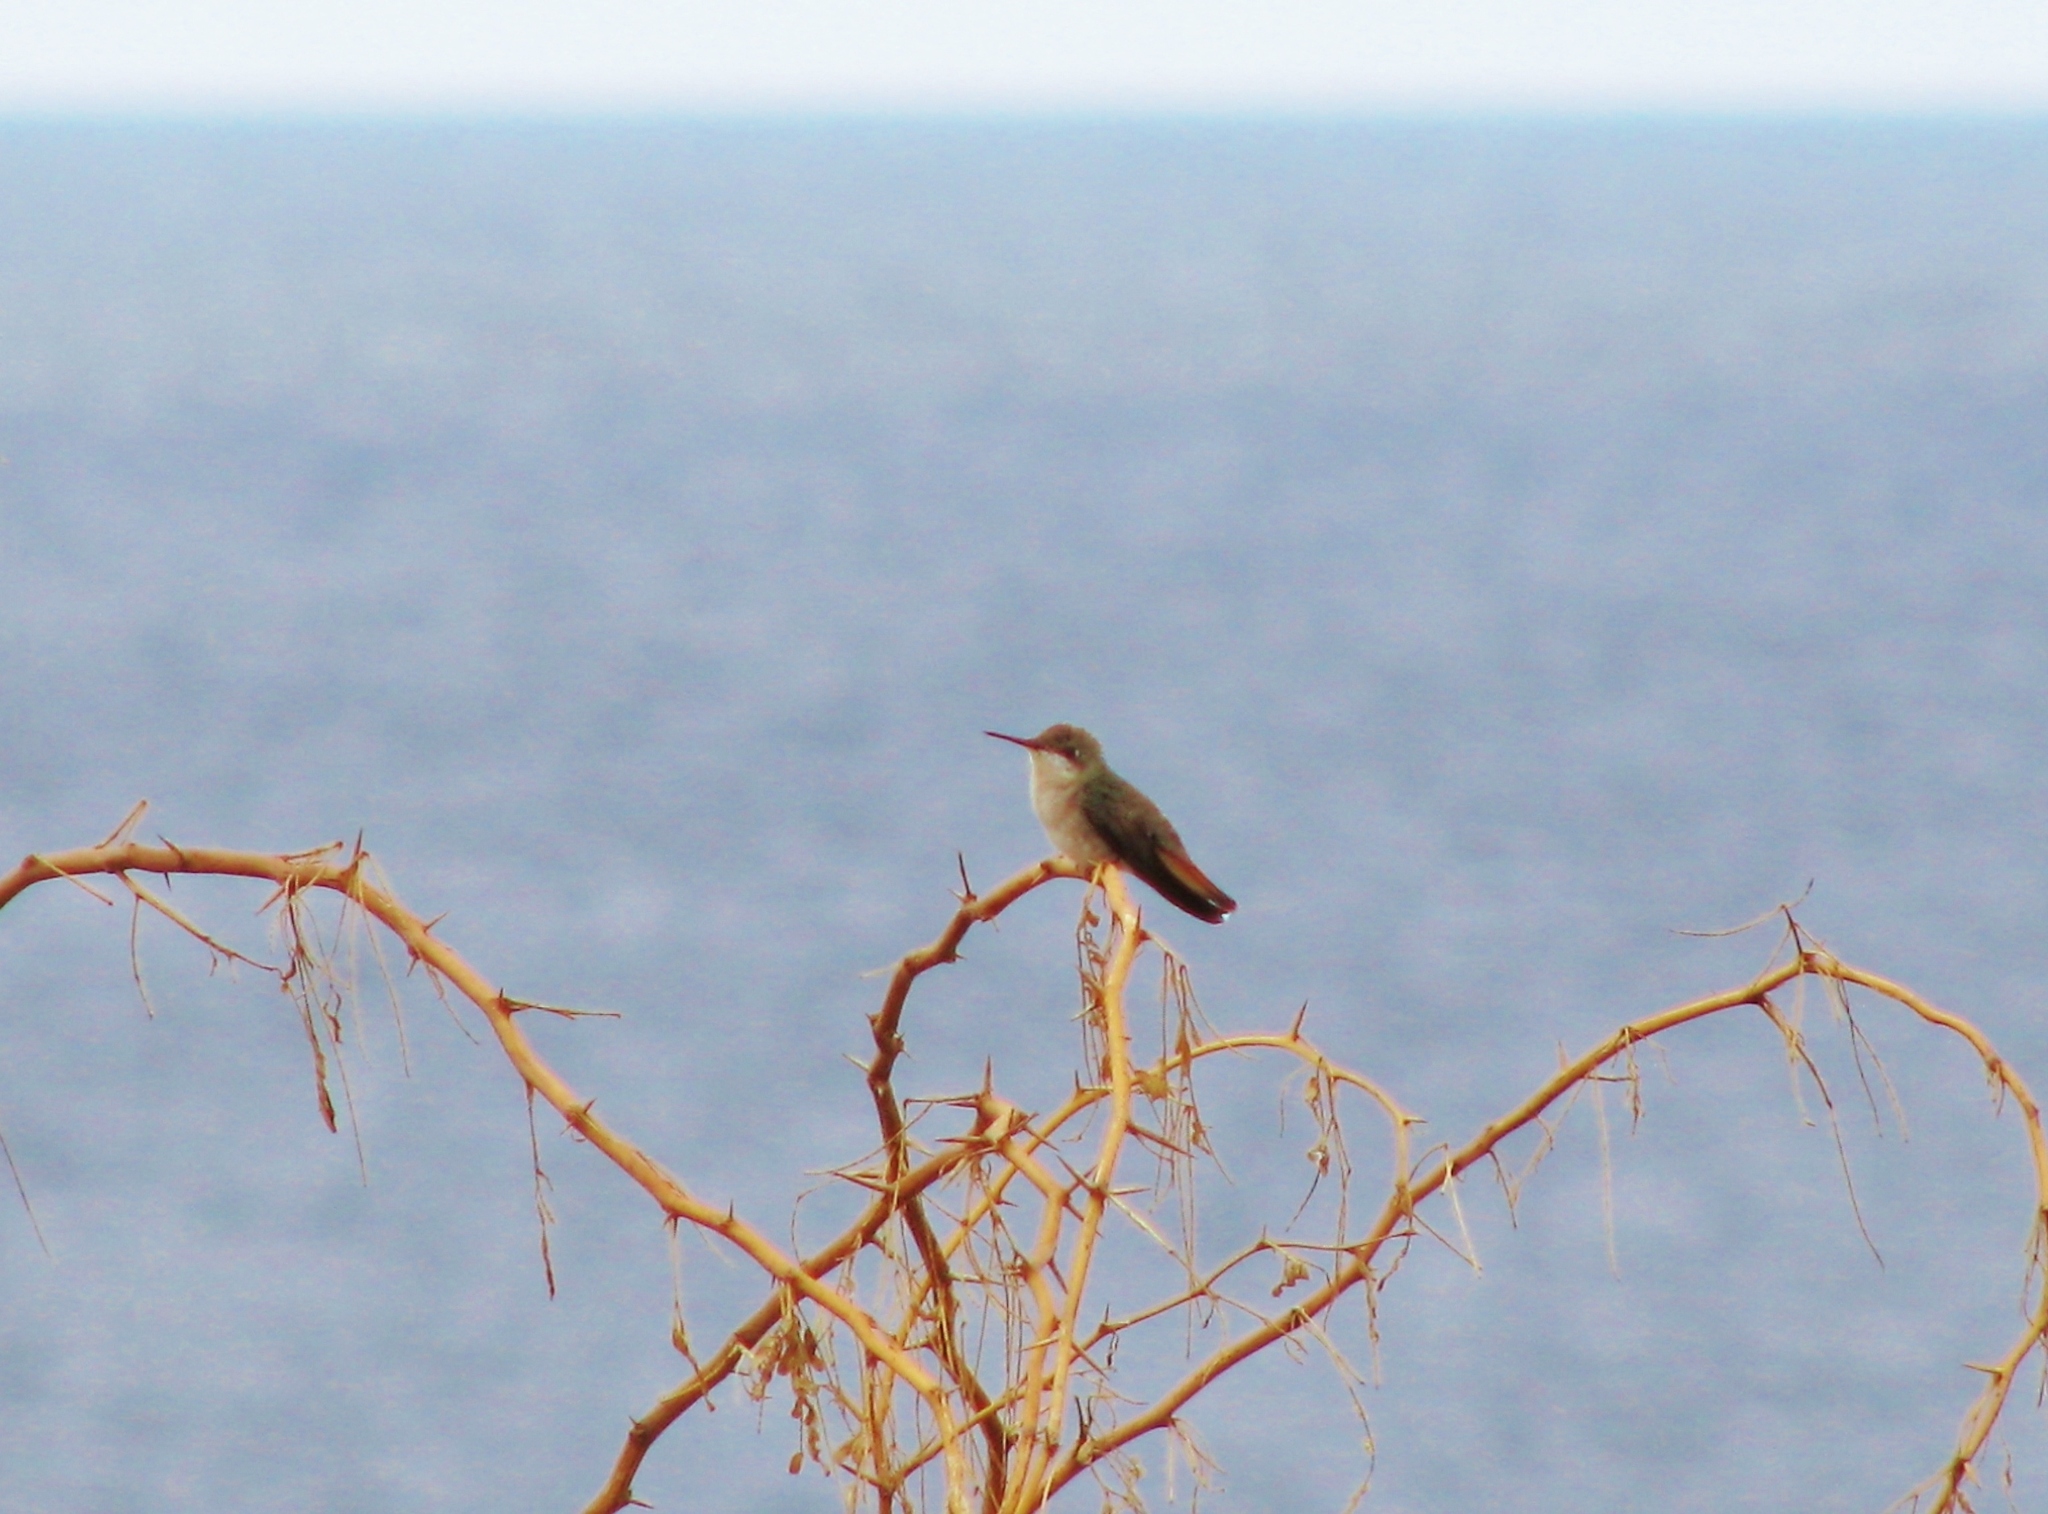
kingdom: Animalia
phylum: Chordata
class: Aves
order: Apodiformes
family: Trochilidae
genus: Chrysolampis
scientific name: Chrysolampis mosquitus
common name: Ruby-topaz hummingbird
